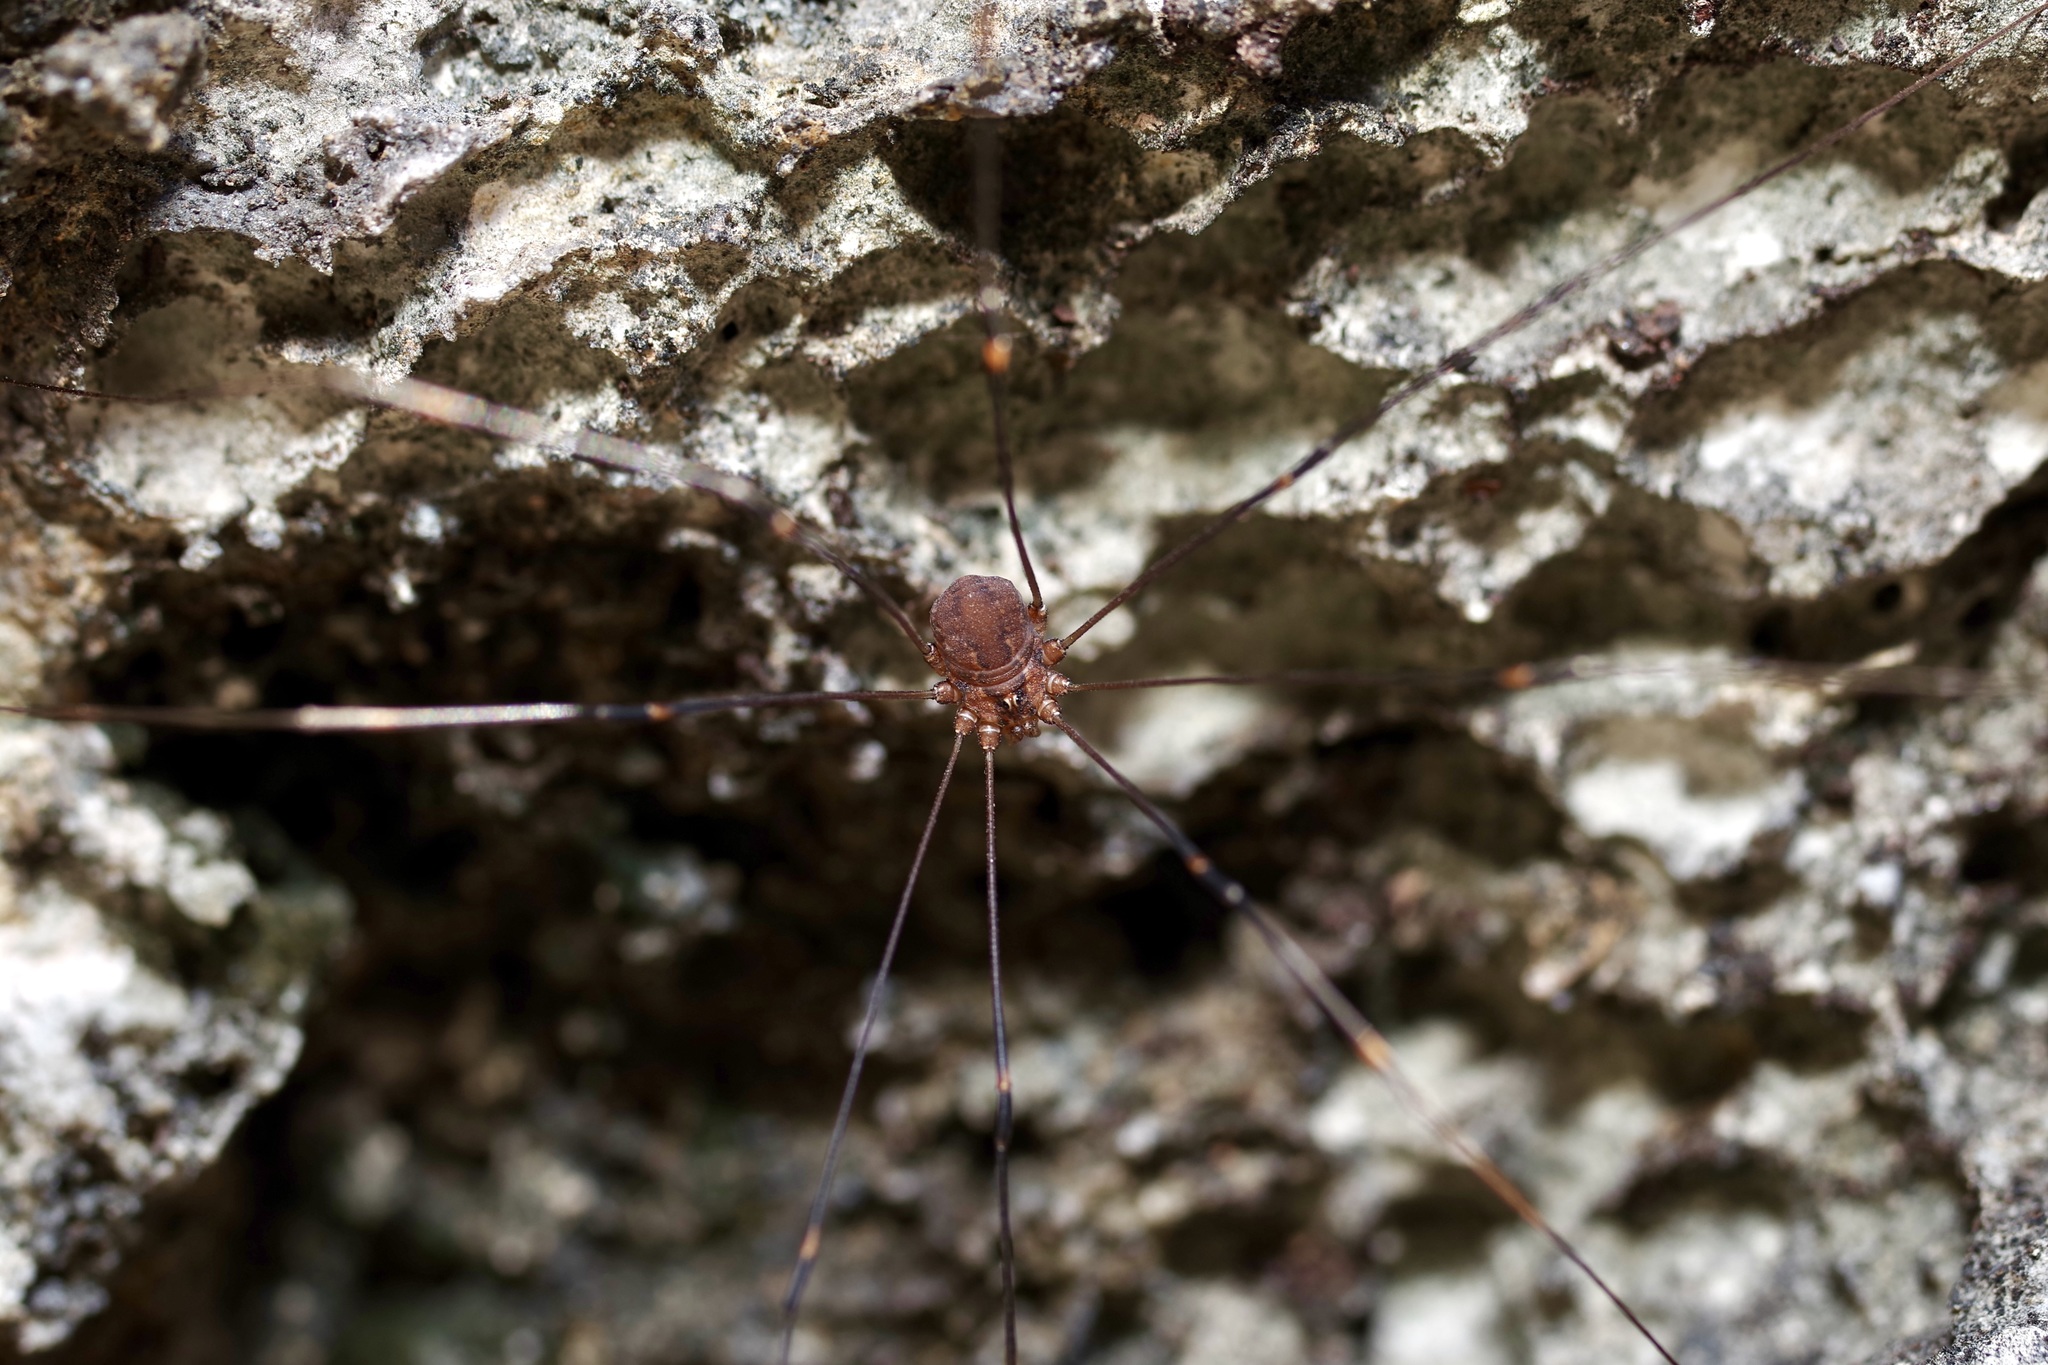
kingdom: Animalia
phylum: Arthropoda
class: Arachnida
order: Opiliones
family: Sclerosomatidae
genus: Leiobunum
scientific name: Leiobunum townsendi
